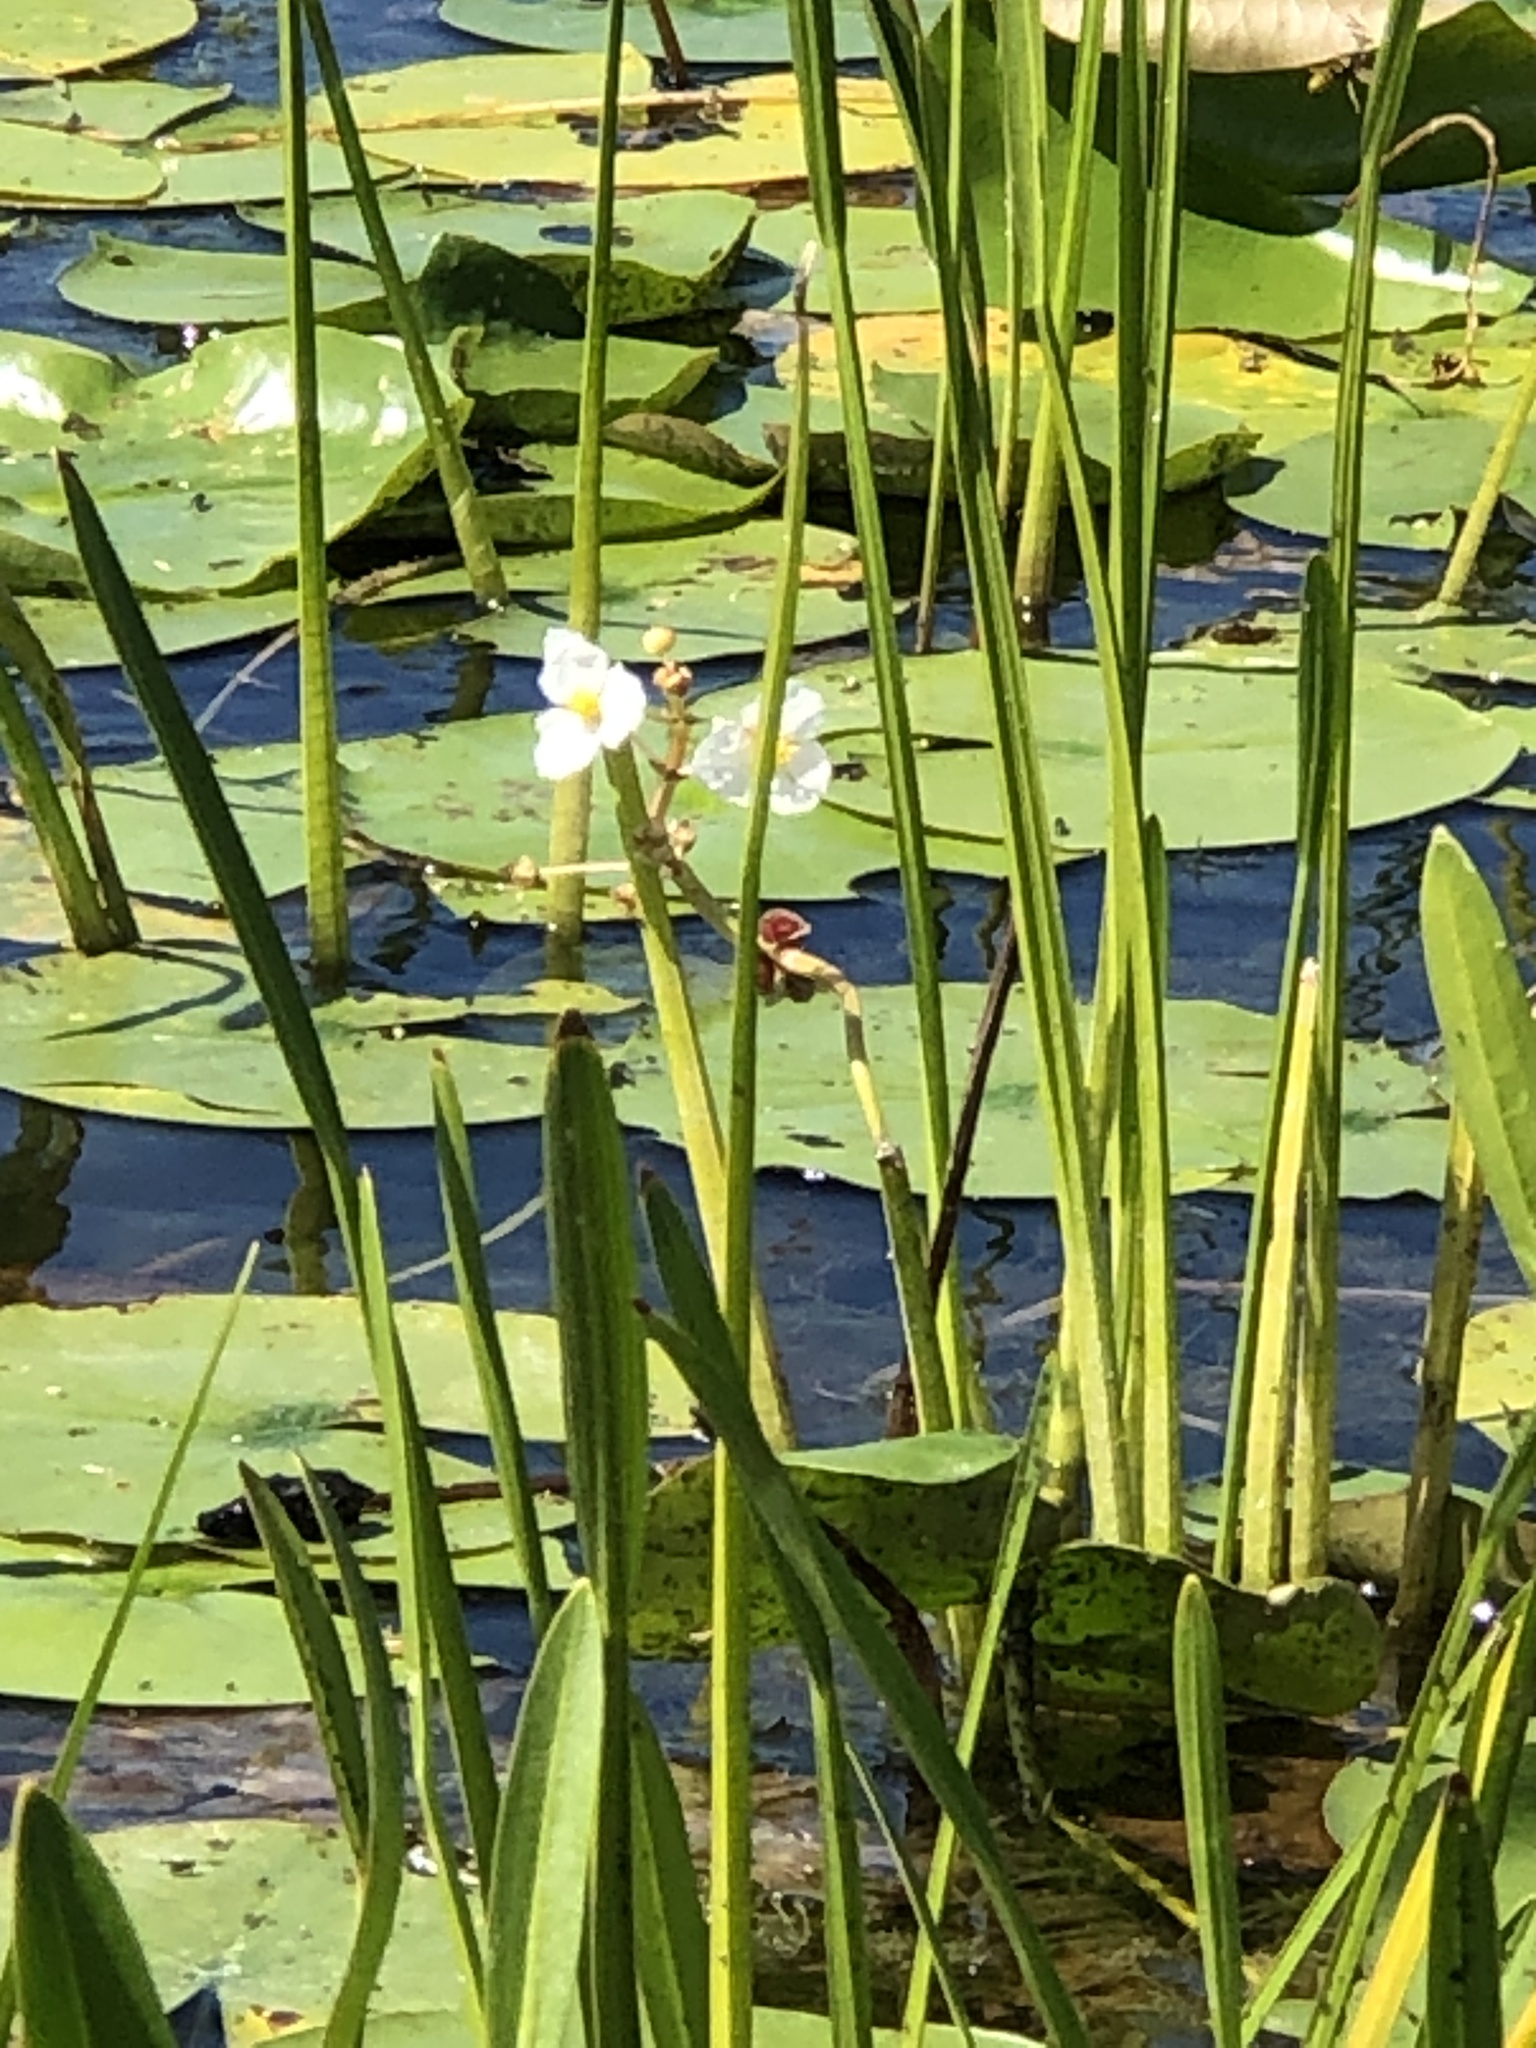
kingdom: Plantae
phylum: Tracheophyta
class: Liliopsida
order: Alismatales
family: Alismataceae
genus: Sagittaria
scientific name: Sagittaria rigida
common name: Canadian arrowhead
